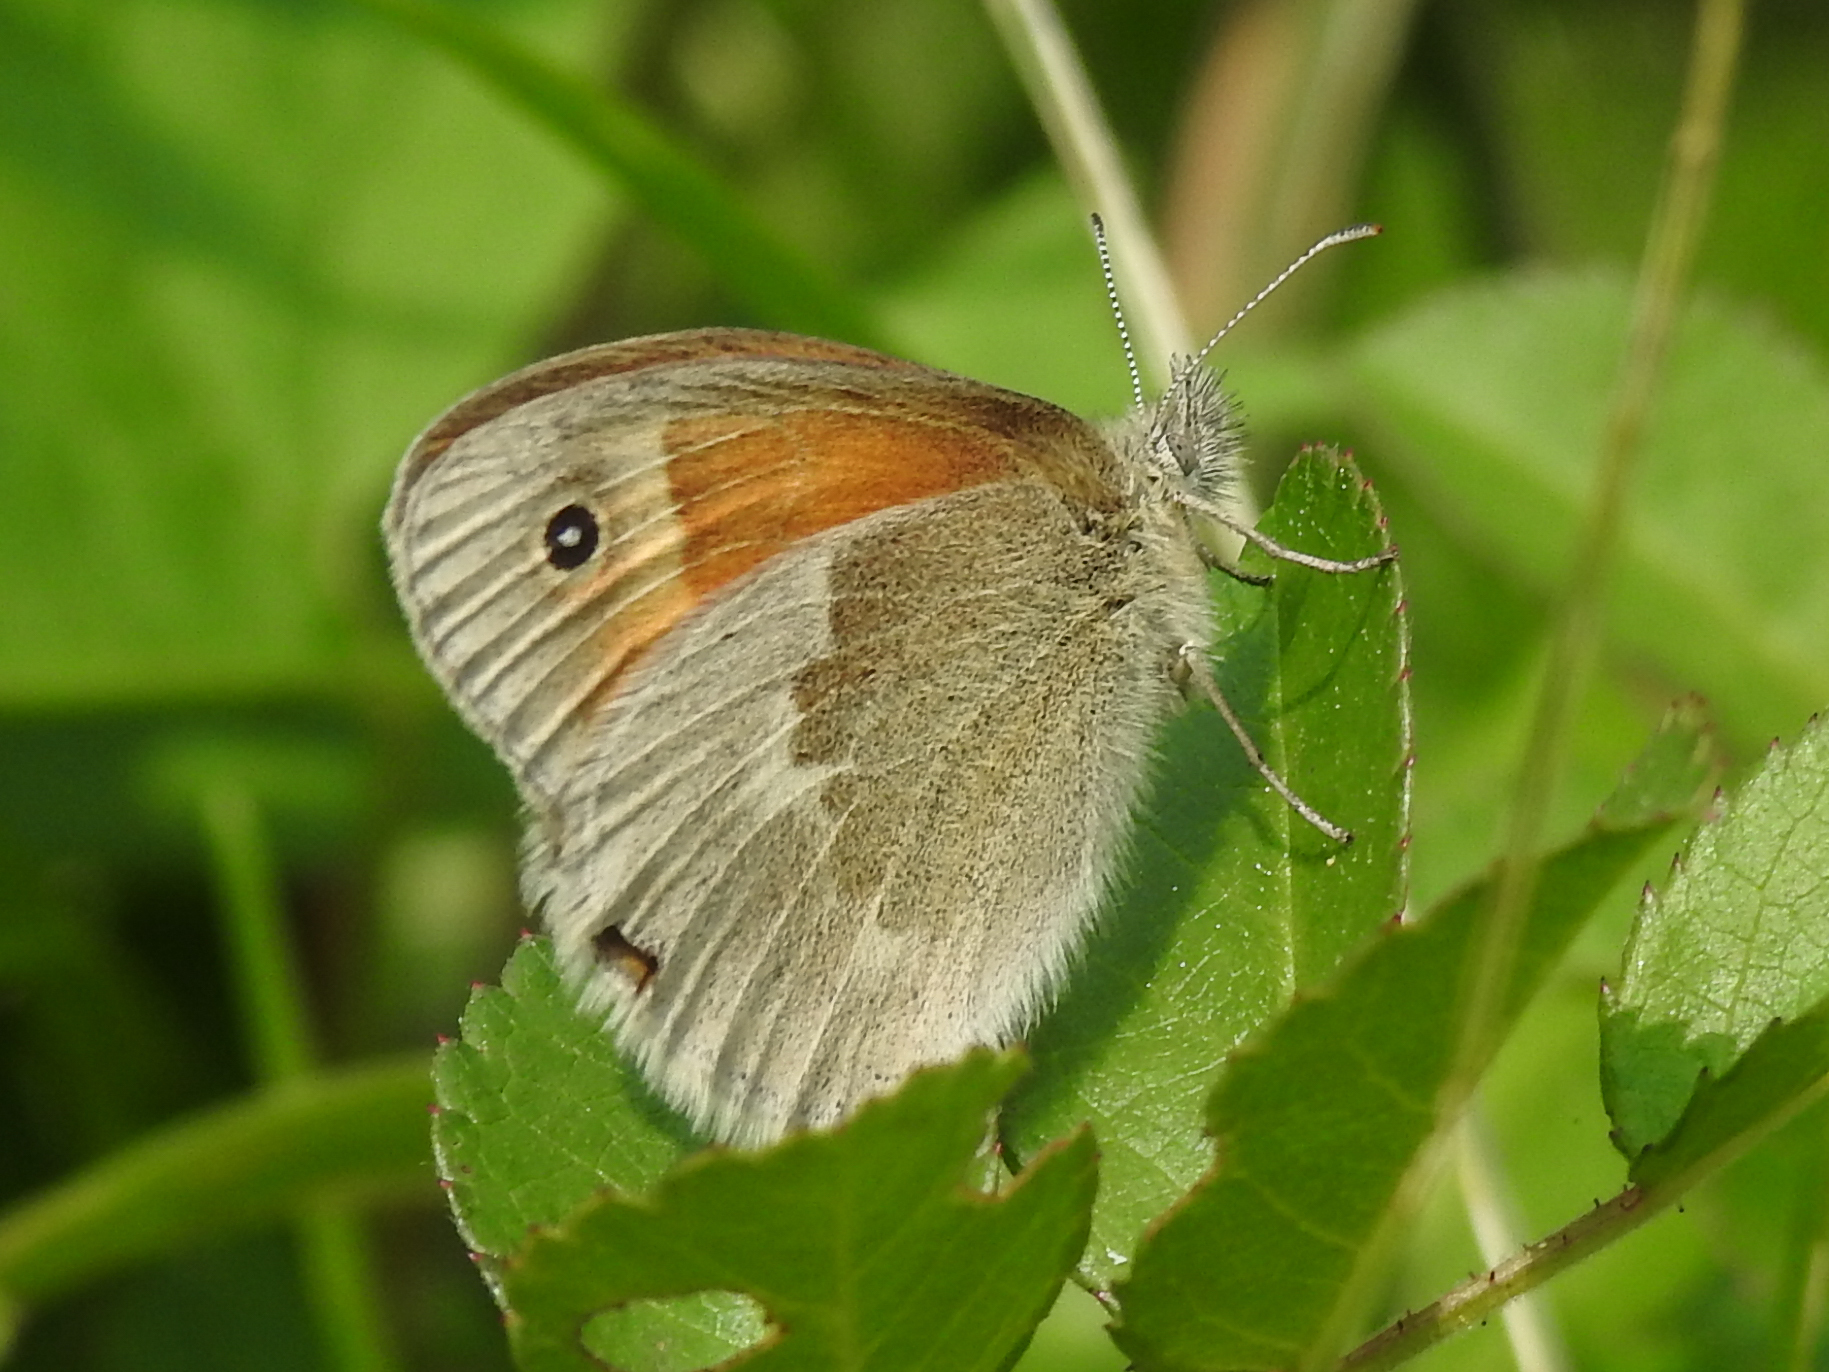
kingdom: Animalia
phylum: Arthropoda
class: Insecta
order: Lepidoptera
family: Nymphalidae
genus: Coenonympha
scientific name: Coenonympha california
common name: Common ringlet
